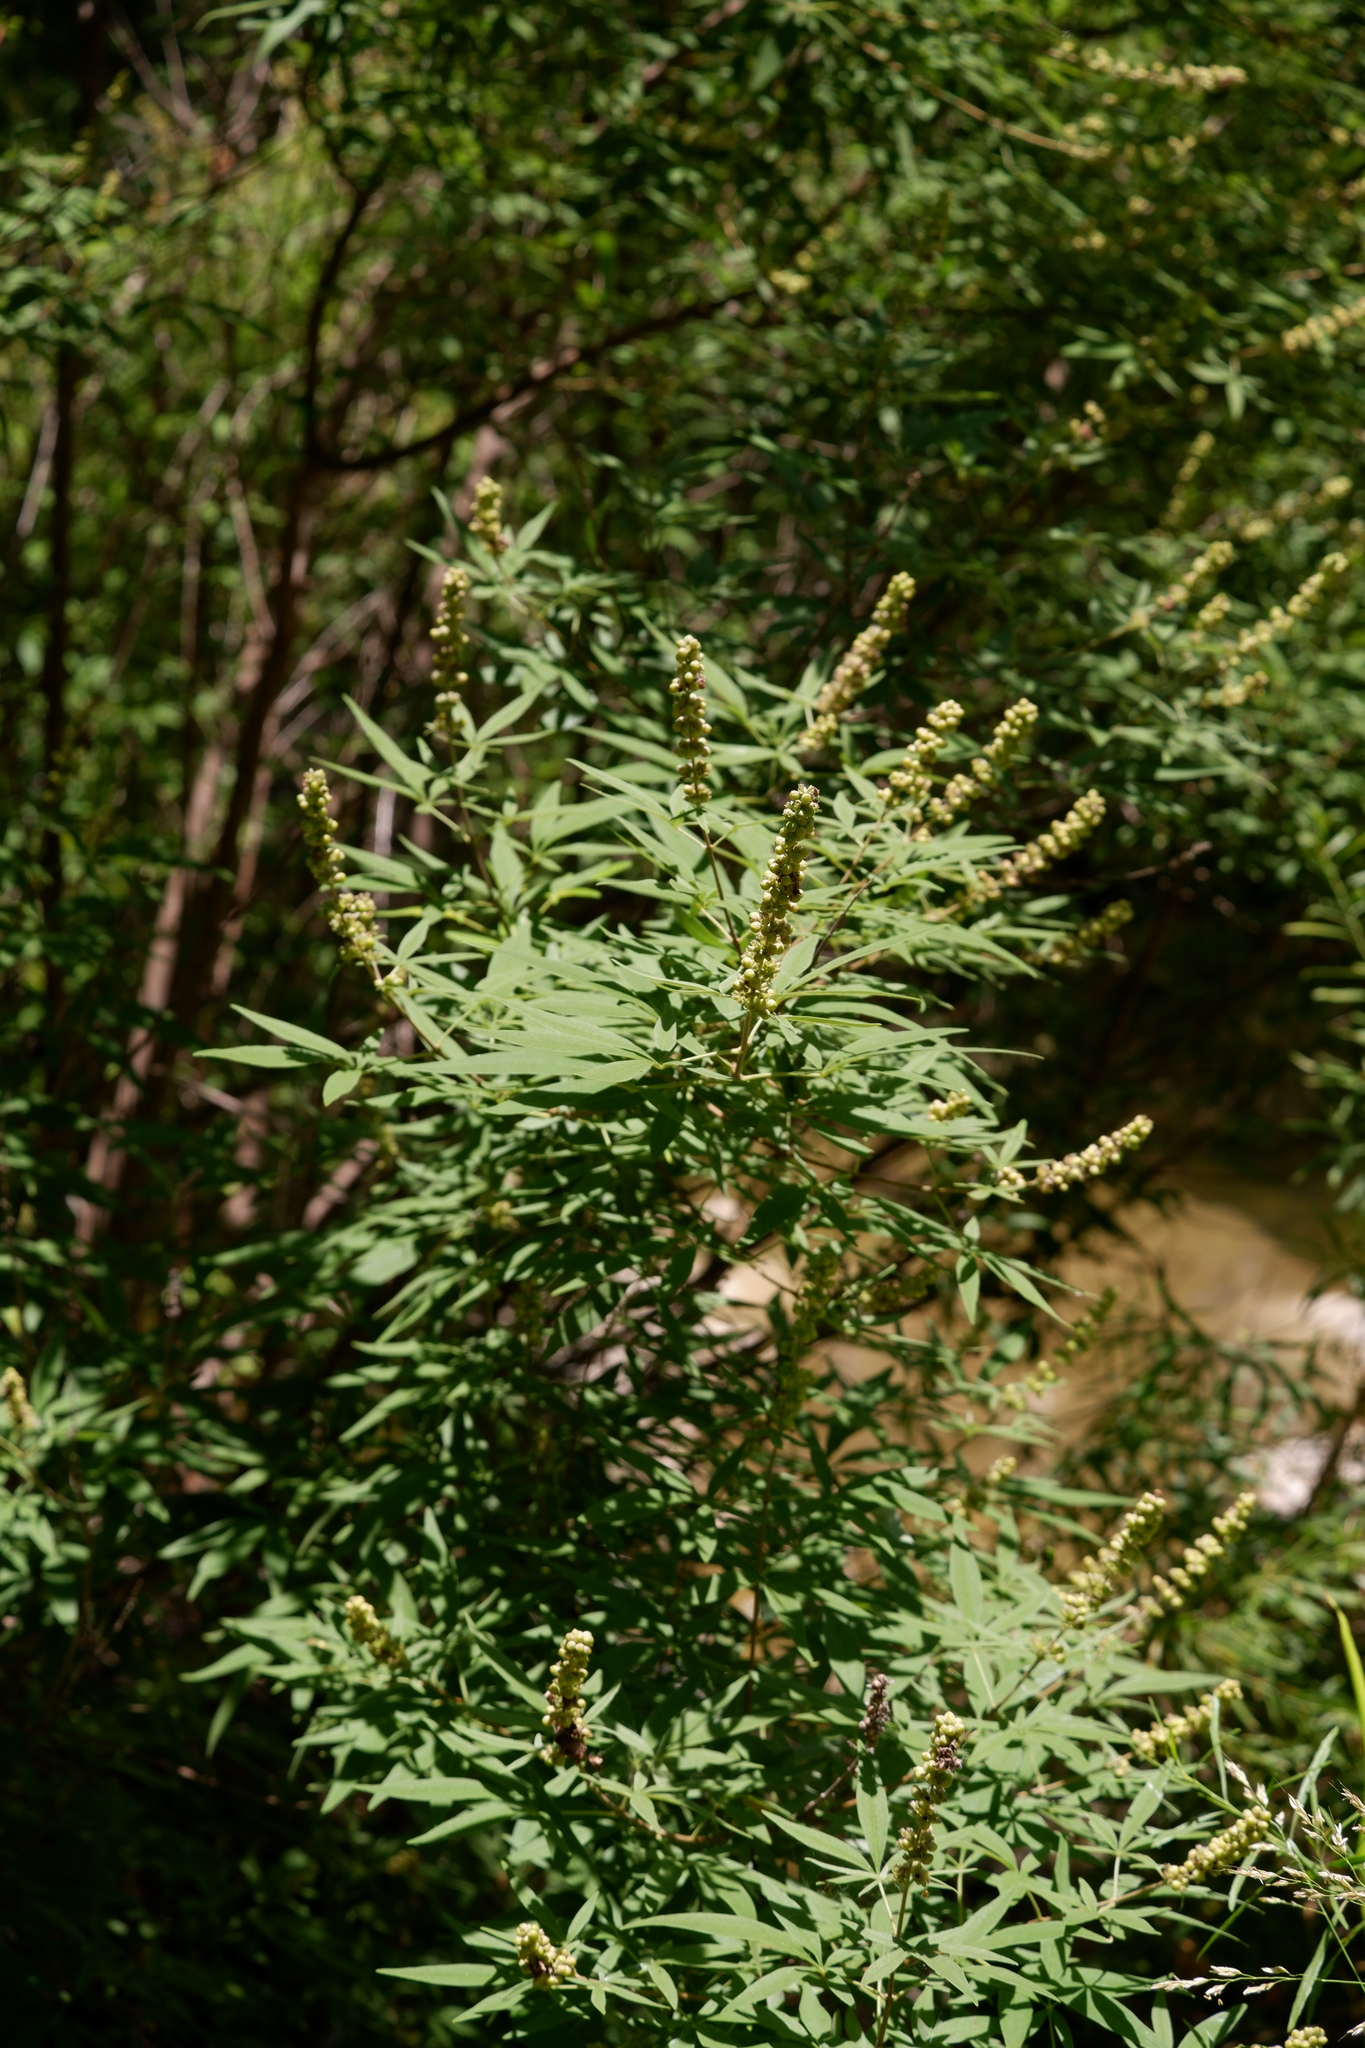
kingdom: Plantae
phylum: Tracheophyta
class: Magnoliopsida
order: Lamiales
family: Lamiaceae
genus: Vitex
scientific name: Vitex agnus-castus
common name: Chasteberry
